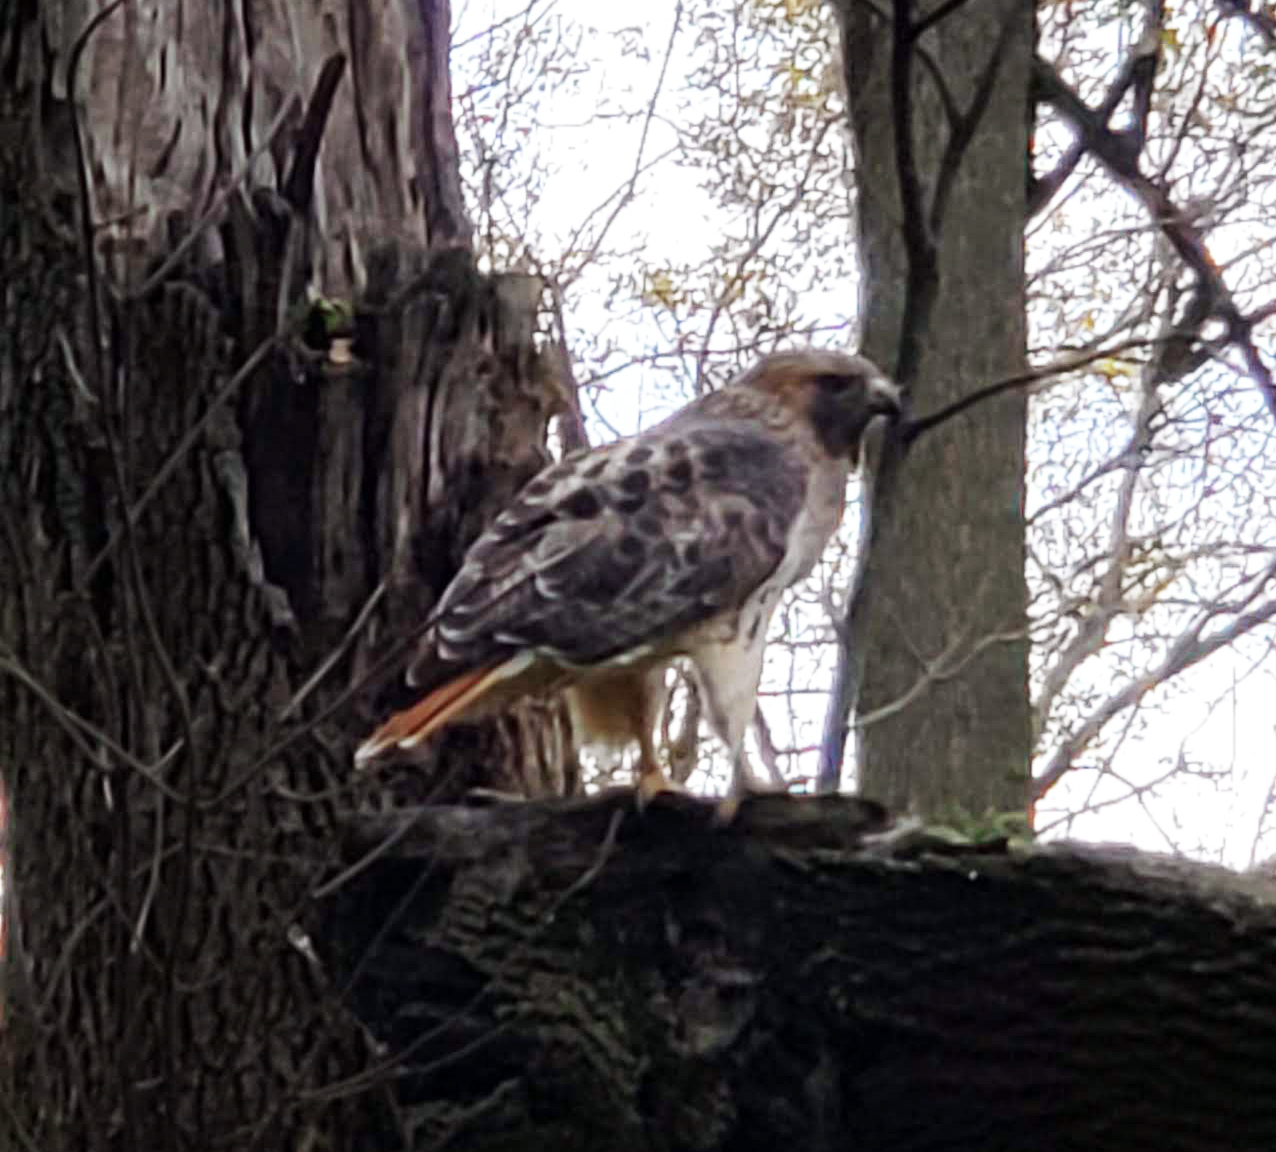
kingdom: Animalia
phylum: Chordata
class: Aves
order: Accipitriformes
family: Accipitridae
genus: Buteo
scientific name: Buteo jamaicensis
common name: Red-tailed hawk
